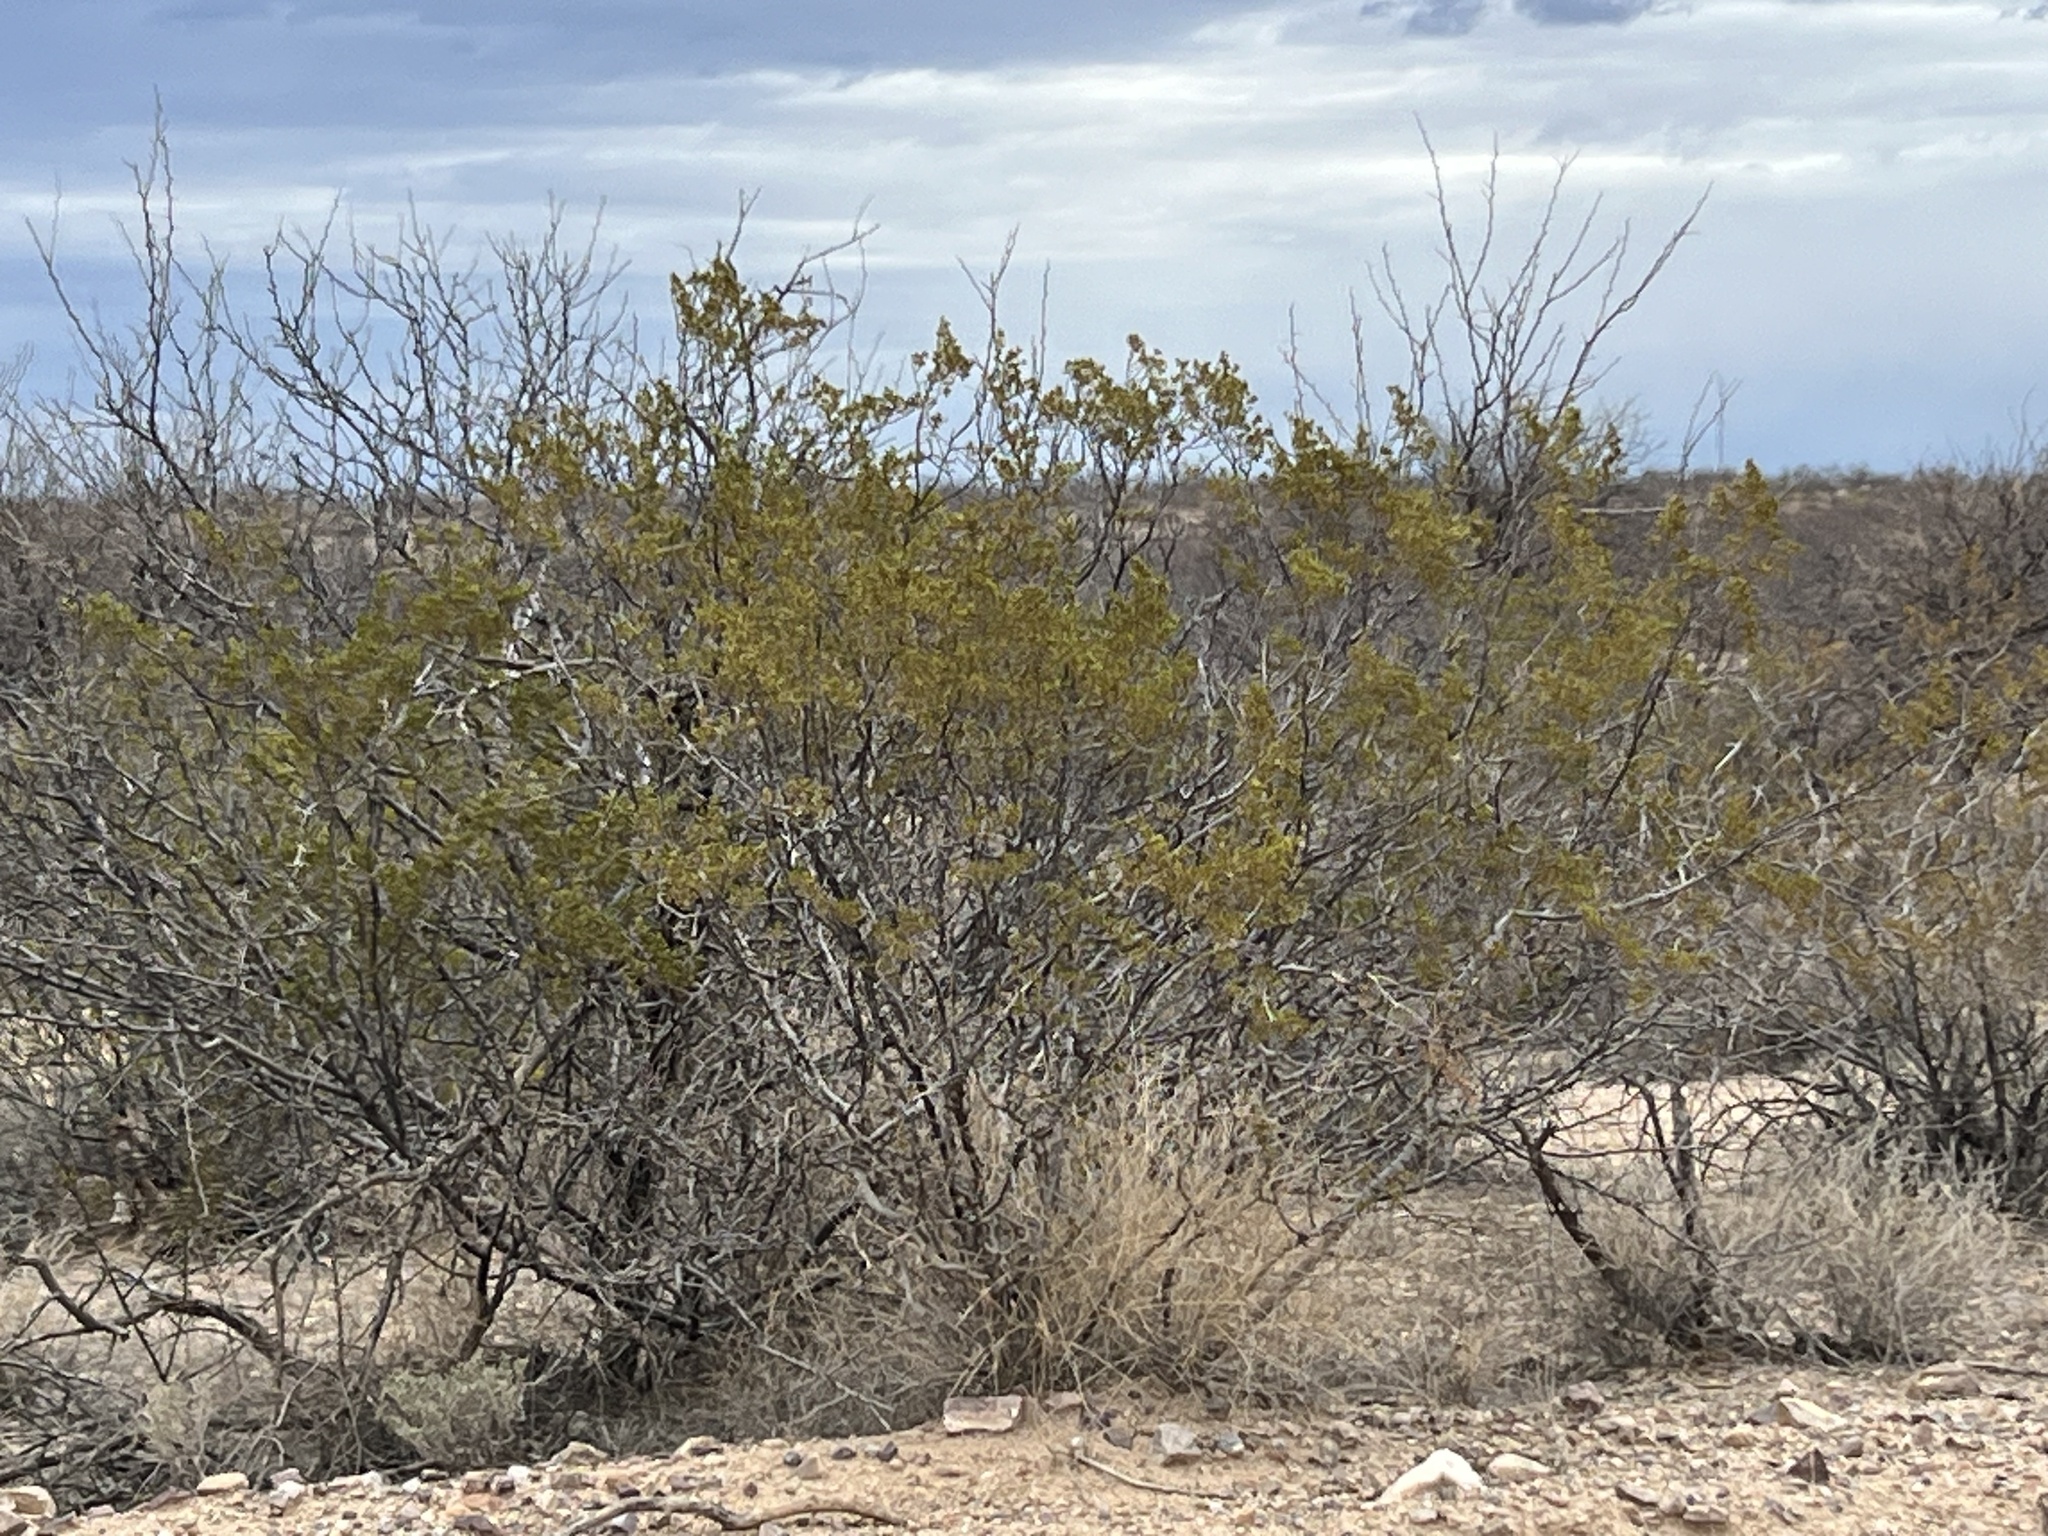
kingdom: Plantae
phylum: Tracheophyta
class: Magnoliopsida
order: Zygophyllales
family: Zygophyllaceae
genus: Larrea
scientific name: Larrea tridentata
